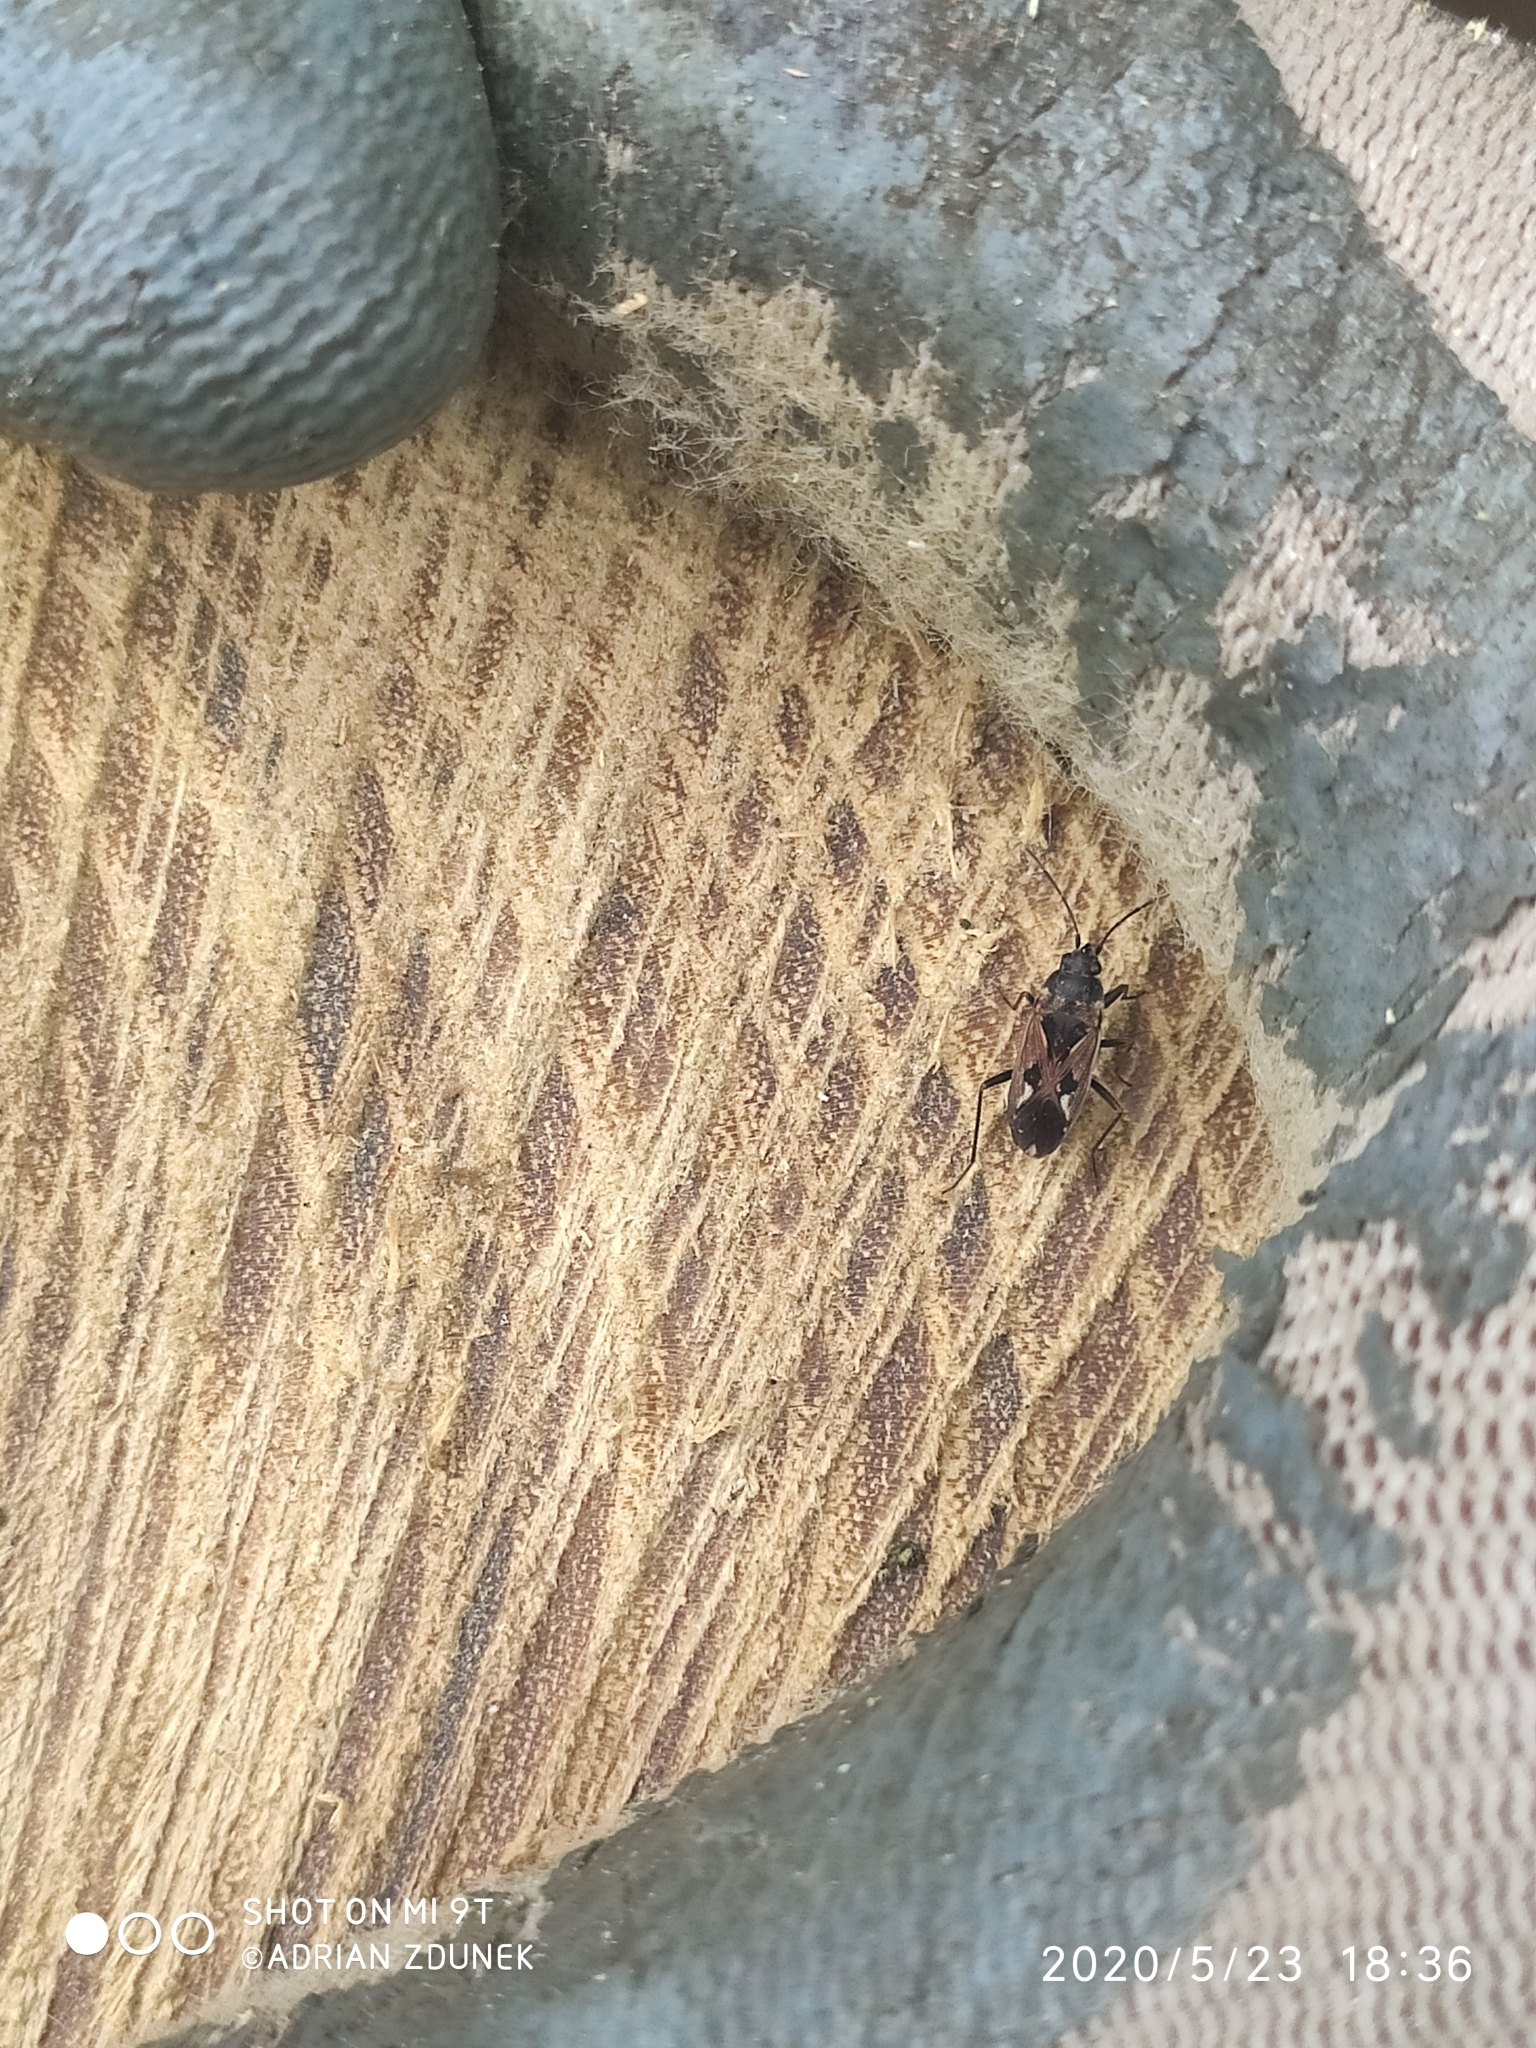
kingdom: Animalia
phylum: Arthropoda
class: Insecta
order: Hemiptera
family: Rhyparochromidae
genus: Rhyparochromus
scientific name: Rhyparochromus vulgaris
